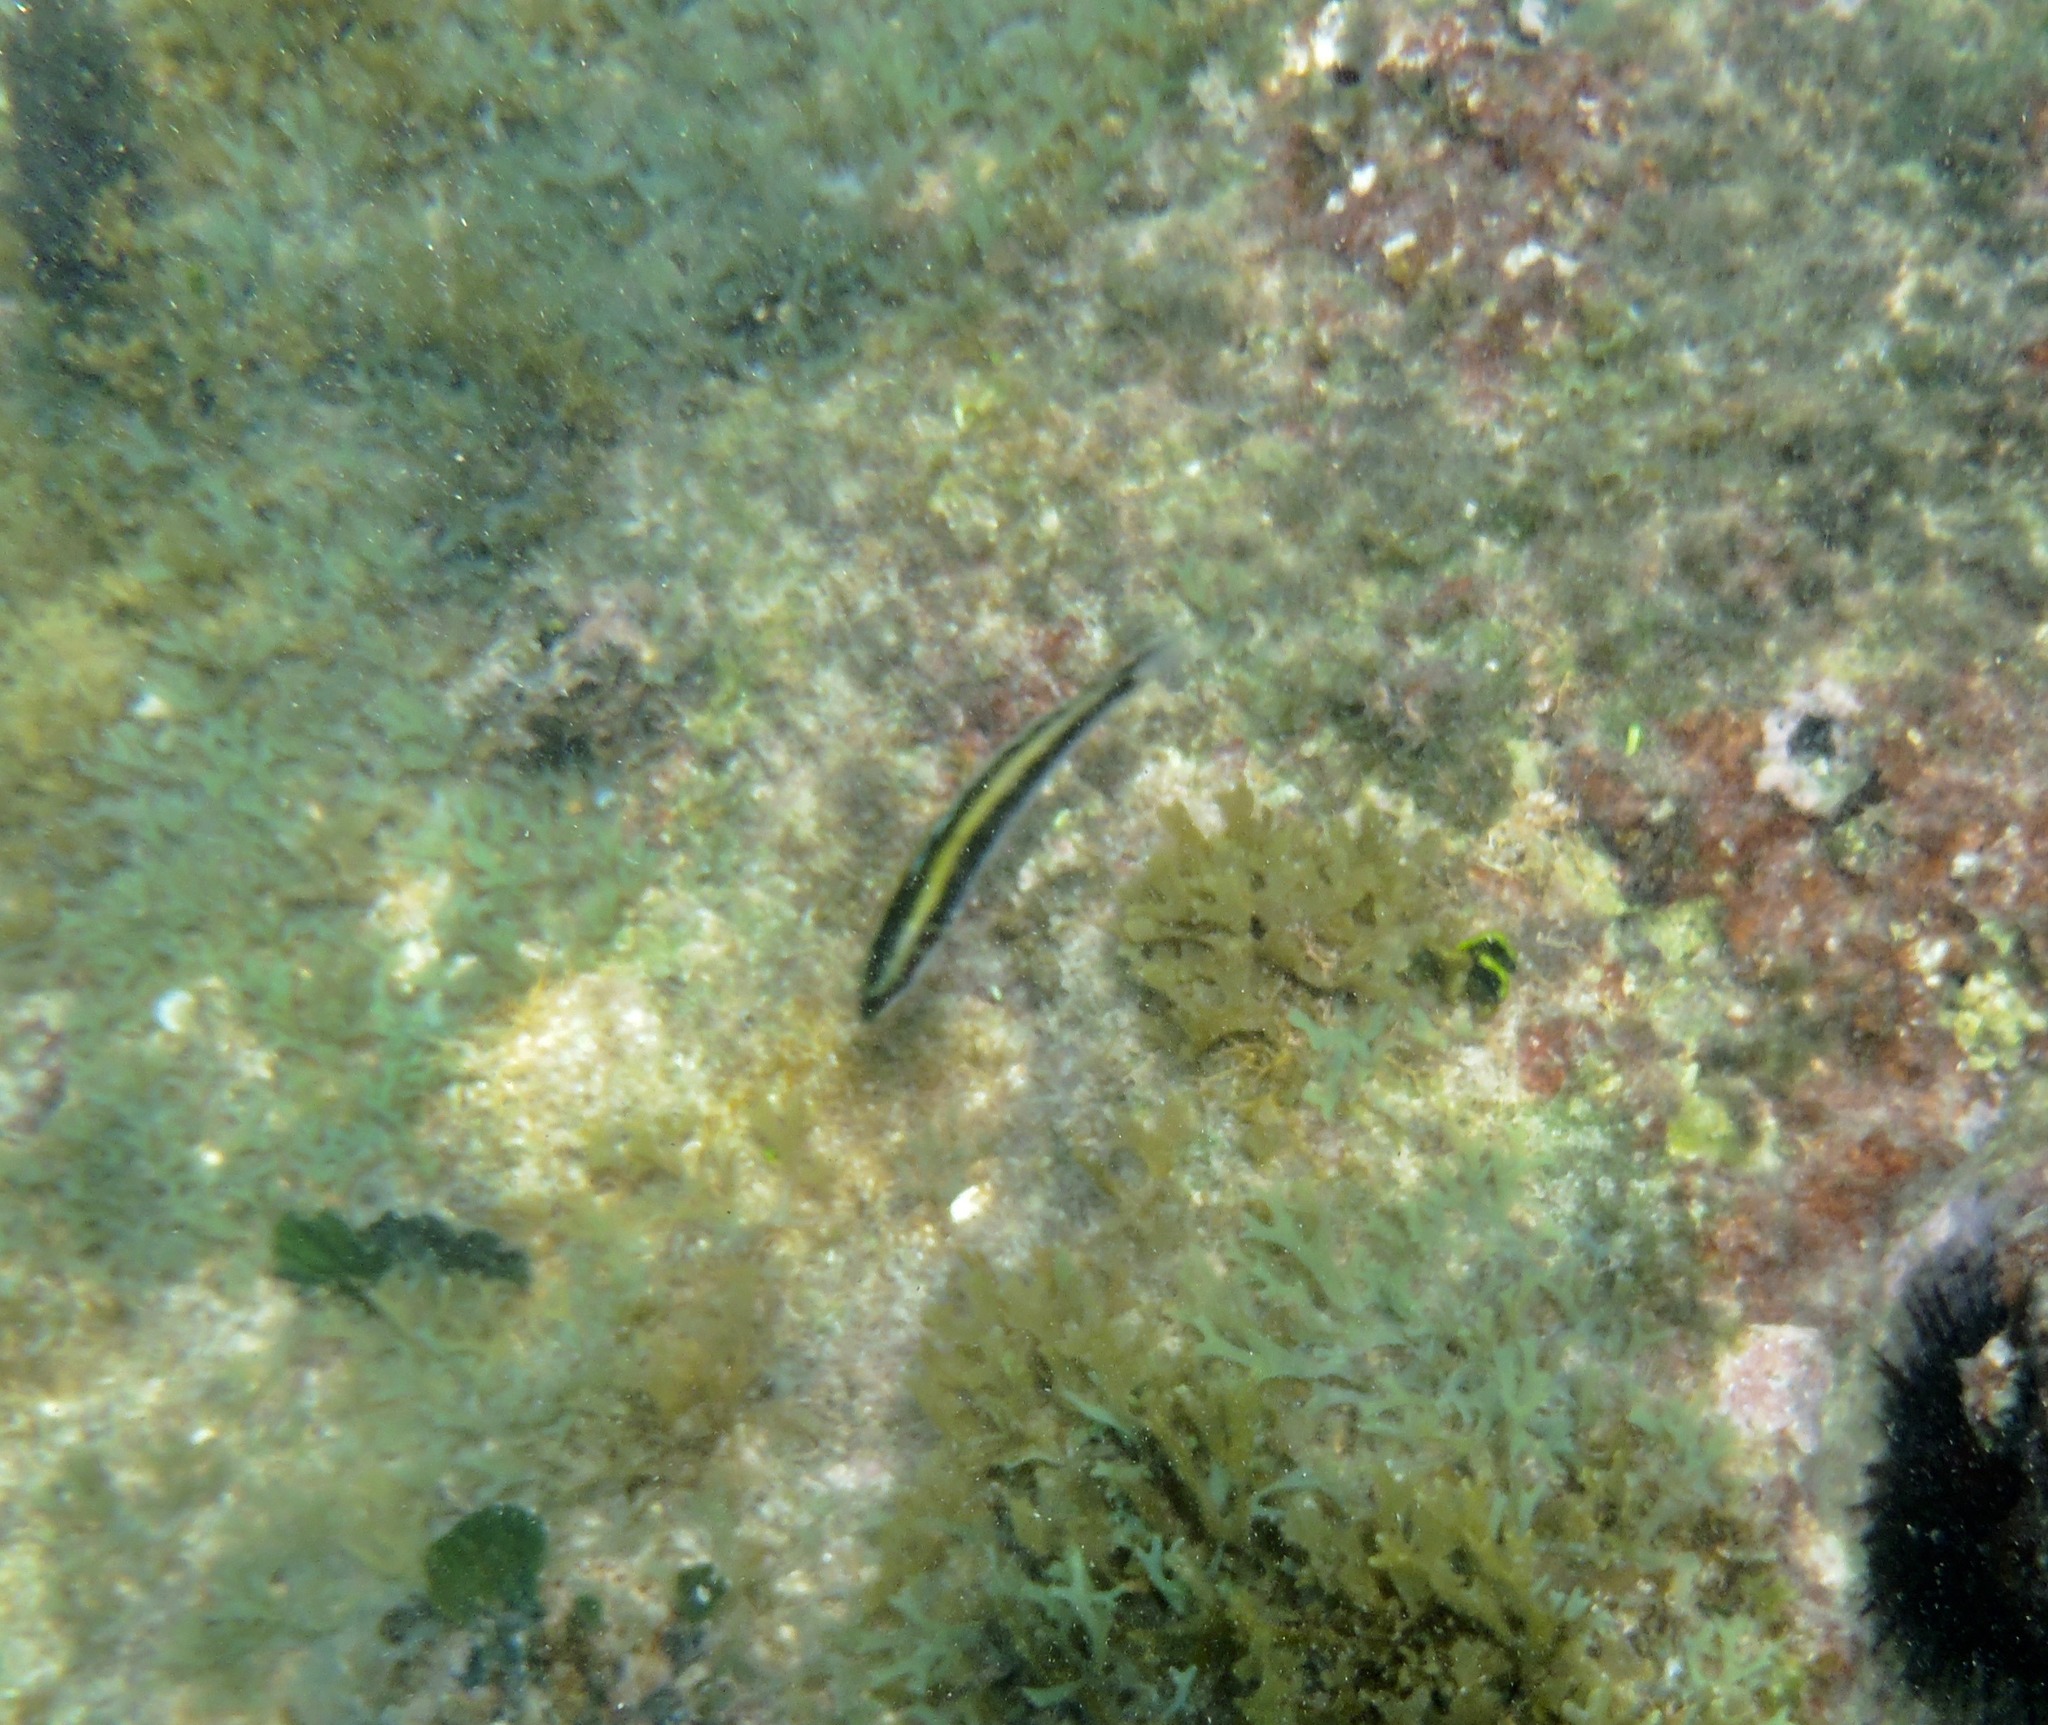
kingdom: Animalia
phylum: Chordata
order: Perciformes
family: Labridae
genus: Thalassoma
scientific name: Thalassoma bifasciatum
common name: Bluehead wrasse
